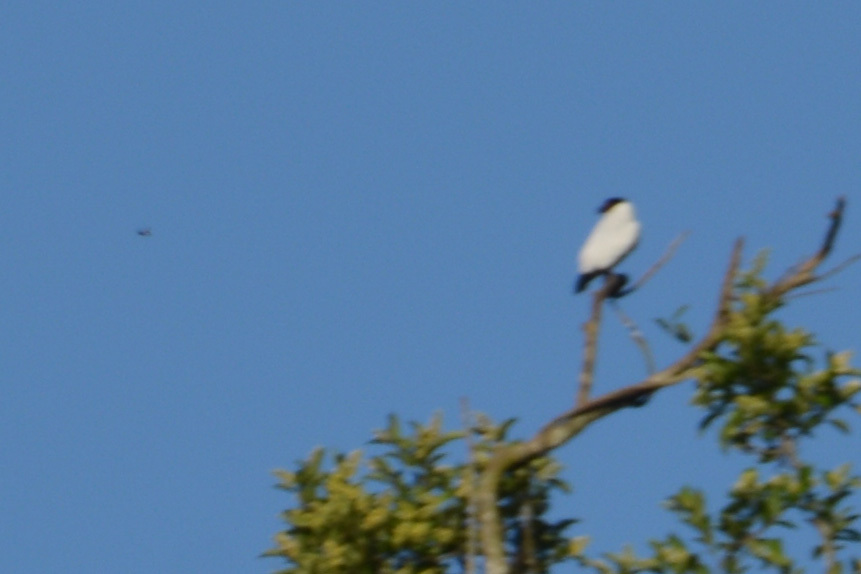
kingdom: Animalia
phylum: Chordata
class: Aves
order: Passeriformes
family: Cotingidae
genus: Tityra
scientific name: Tityra cayana
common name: Black-tailed tityra
